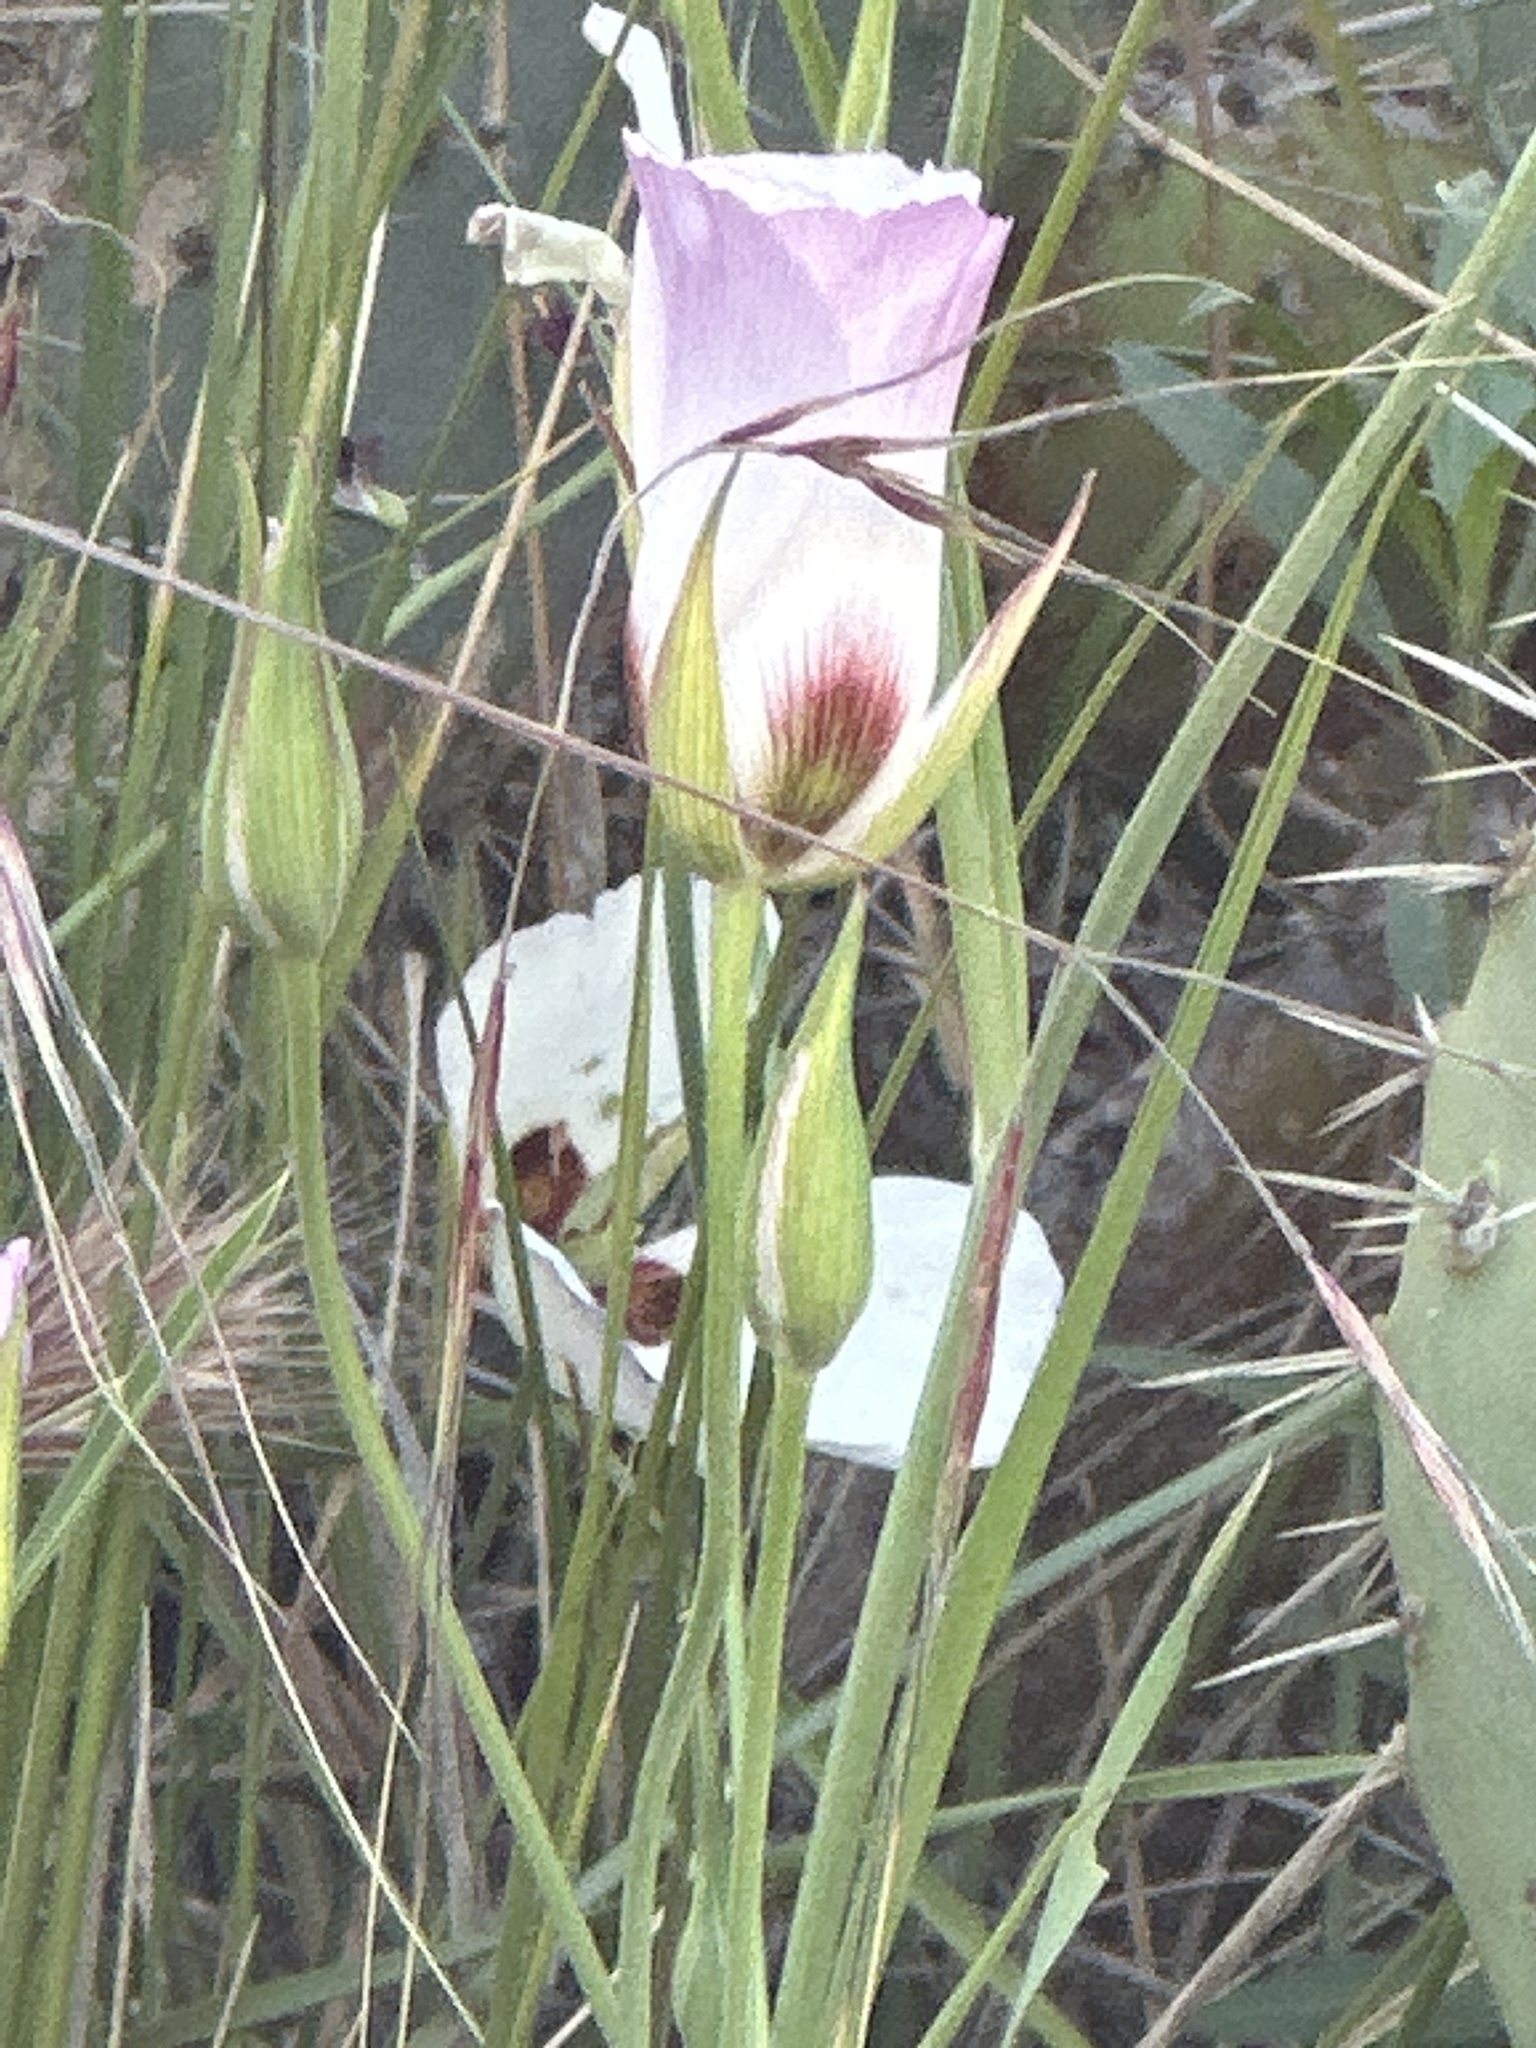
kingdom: Plantae
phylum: Tracheophyta
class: Liliopsida
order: Liliales
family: Liliaceae
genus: Calochortus
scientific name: Calochortus catalinae
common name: Catalina mariposa-lily
